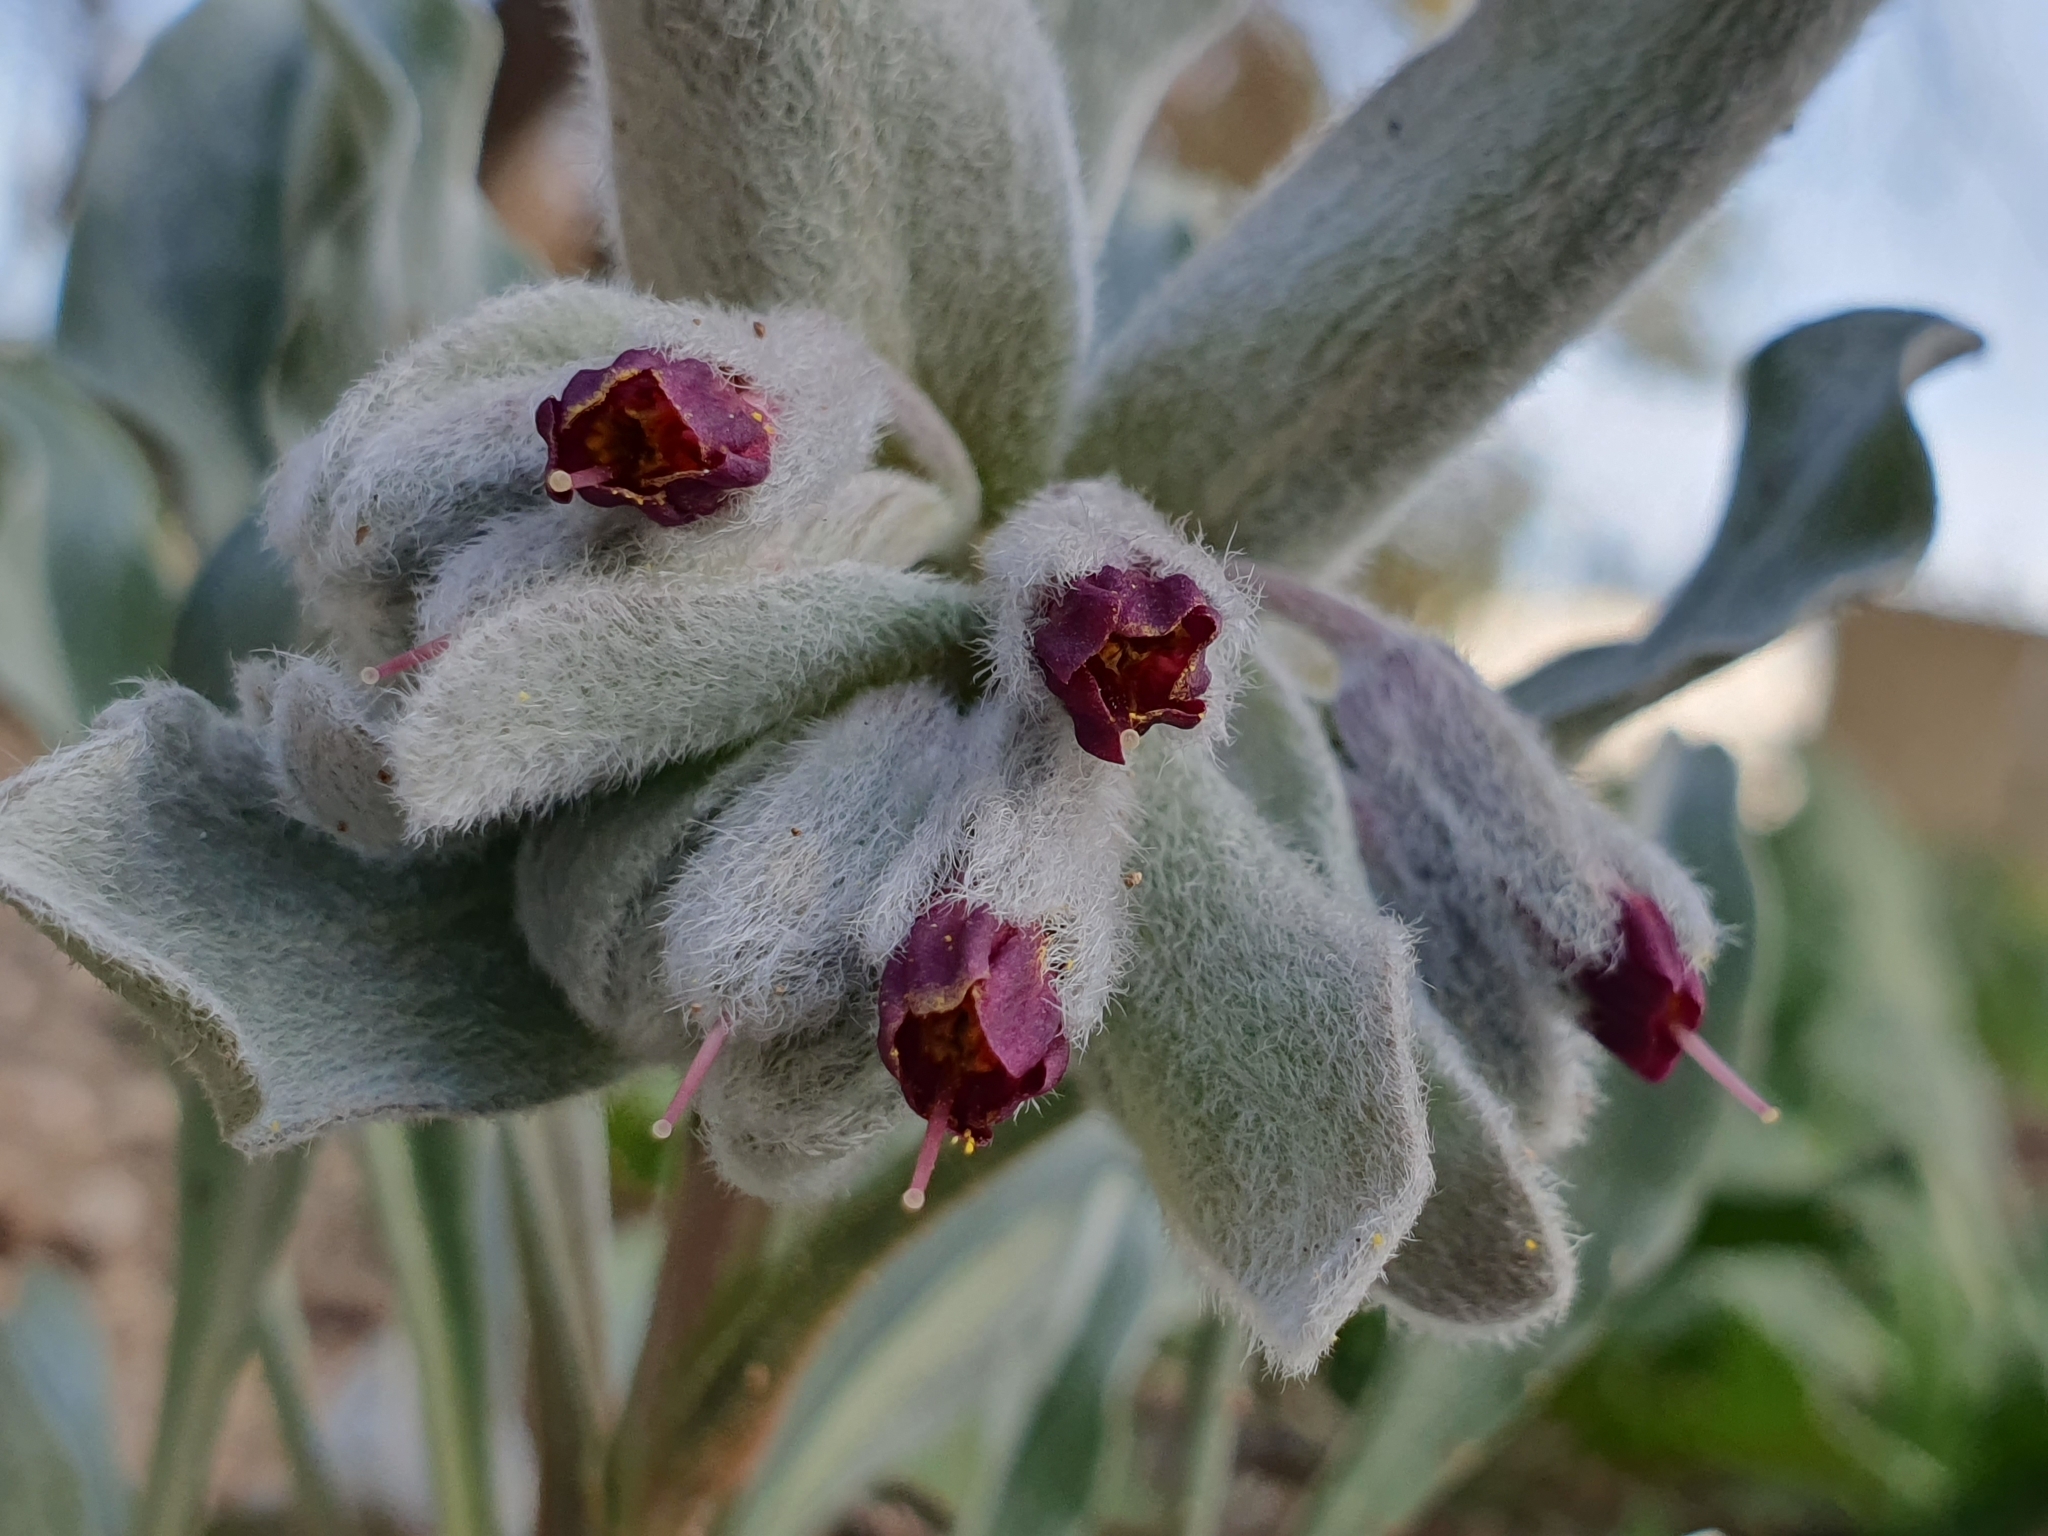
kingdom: Plantae
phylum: Tracheophyta
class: Magnoliopsida
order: Boraginales
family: Boraginaceae
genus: Pardoglossum
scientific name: Pardoglossum tubiflorum
